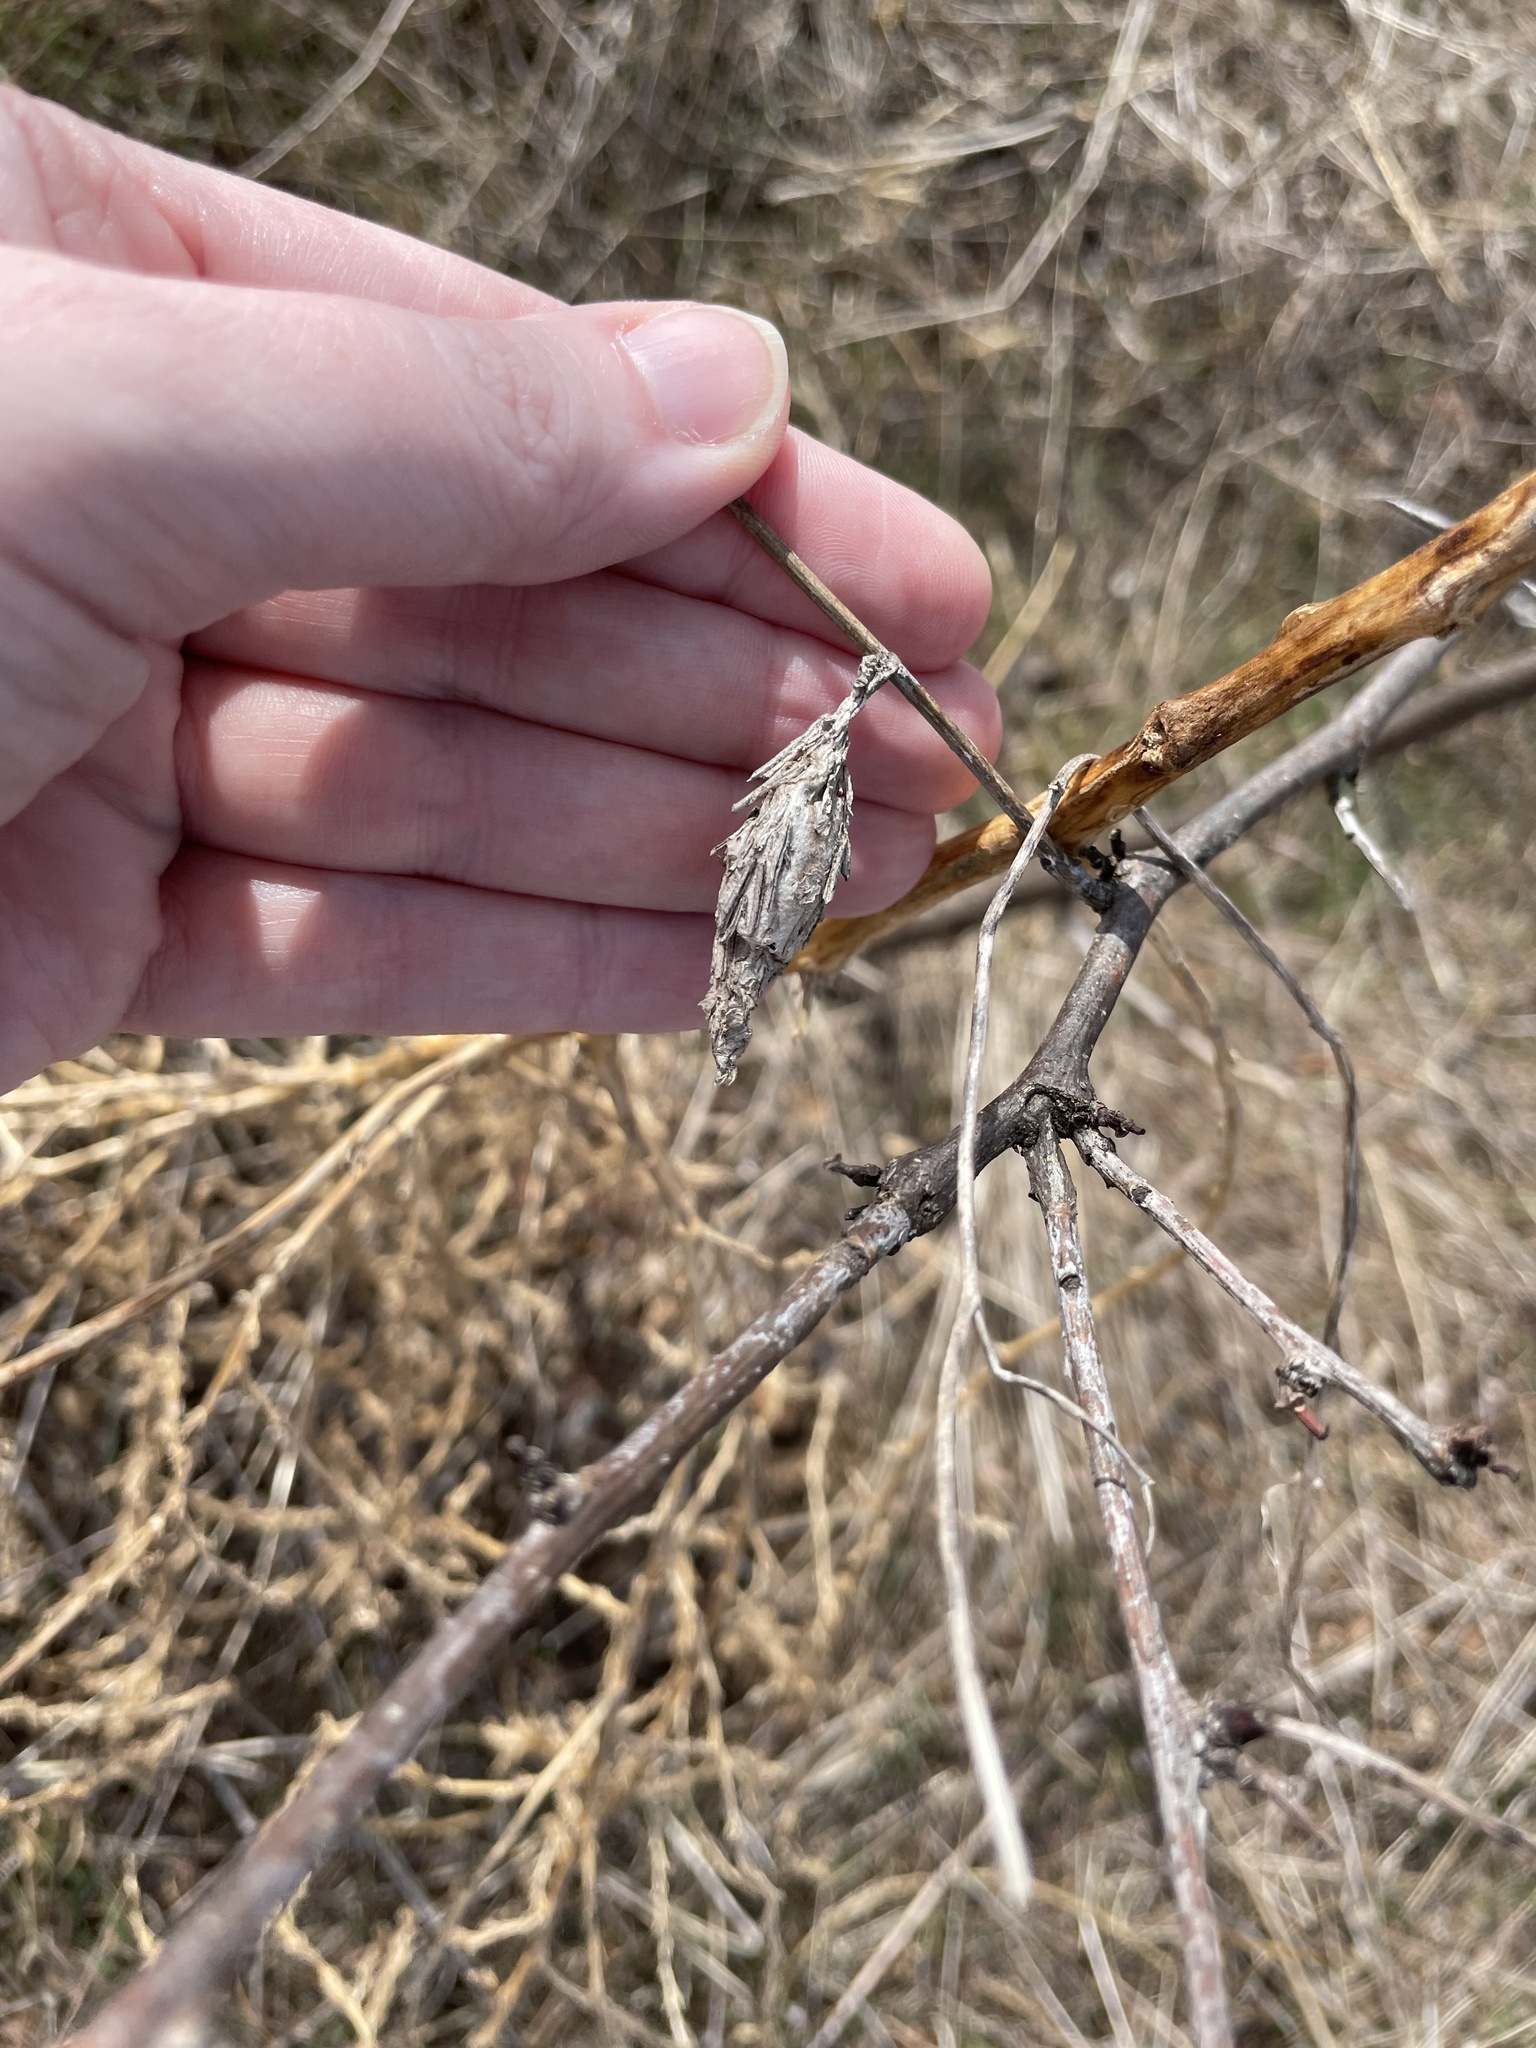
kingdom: Animalia
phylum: Arthropoda
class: Insecta
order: Lepidoptera
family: Psychidae
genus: Thyridopteryx
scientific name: Thyridopteryx ephemeraeformis
